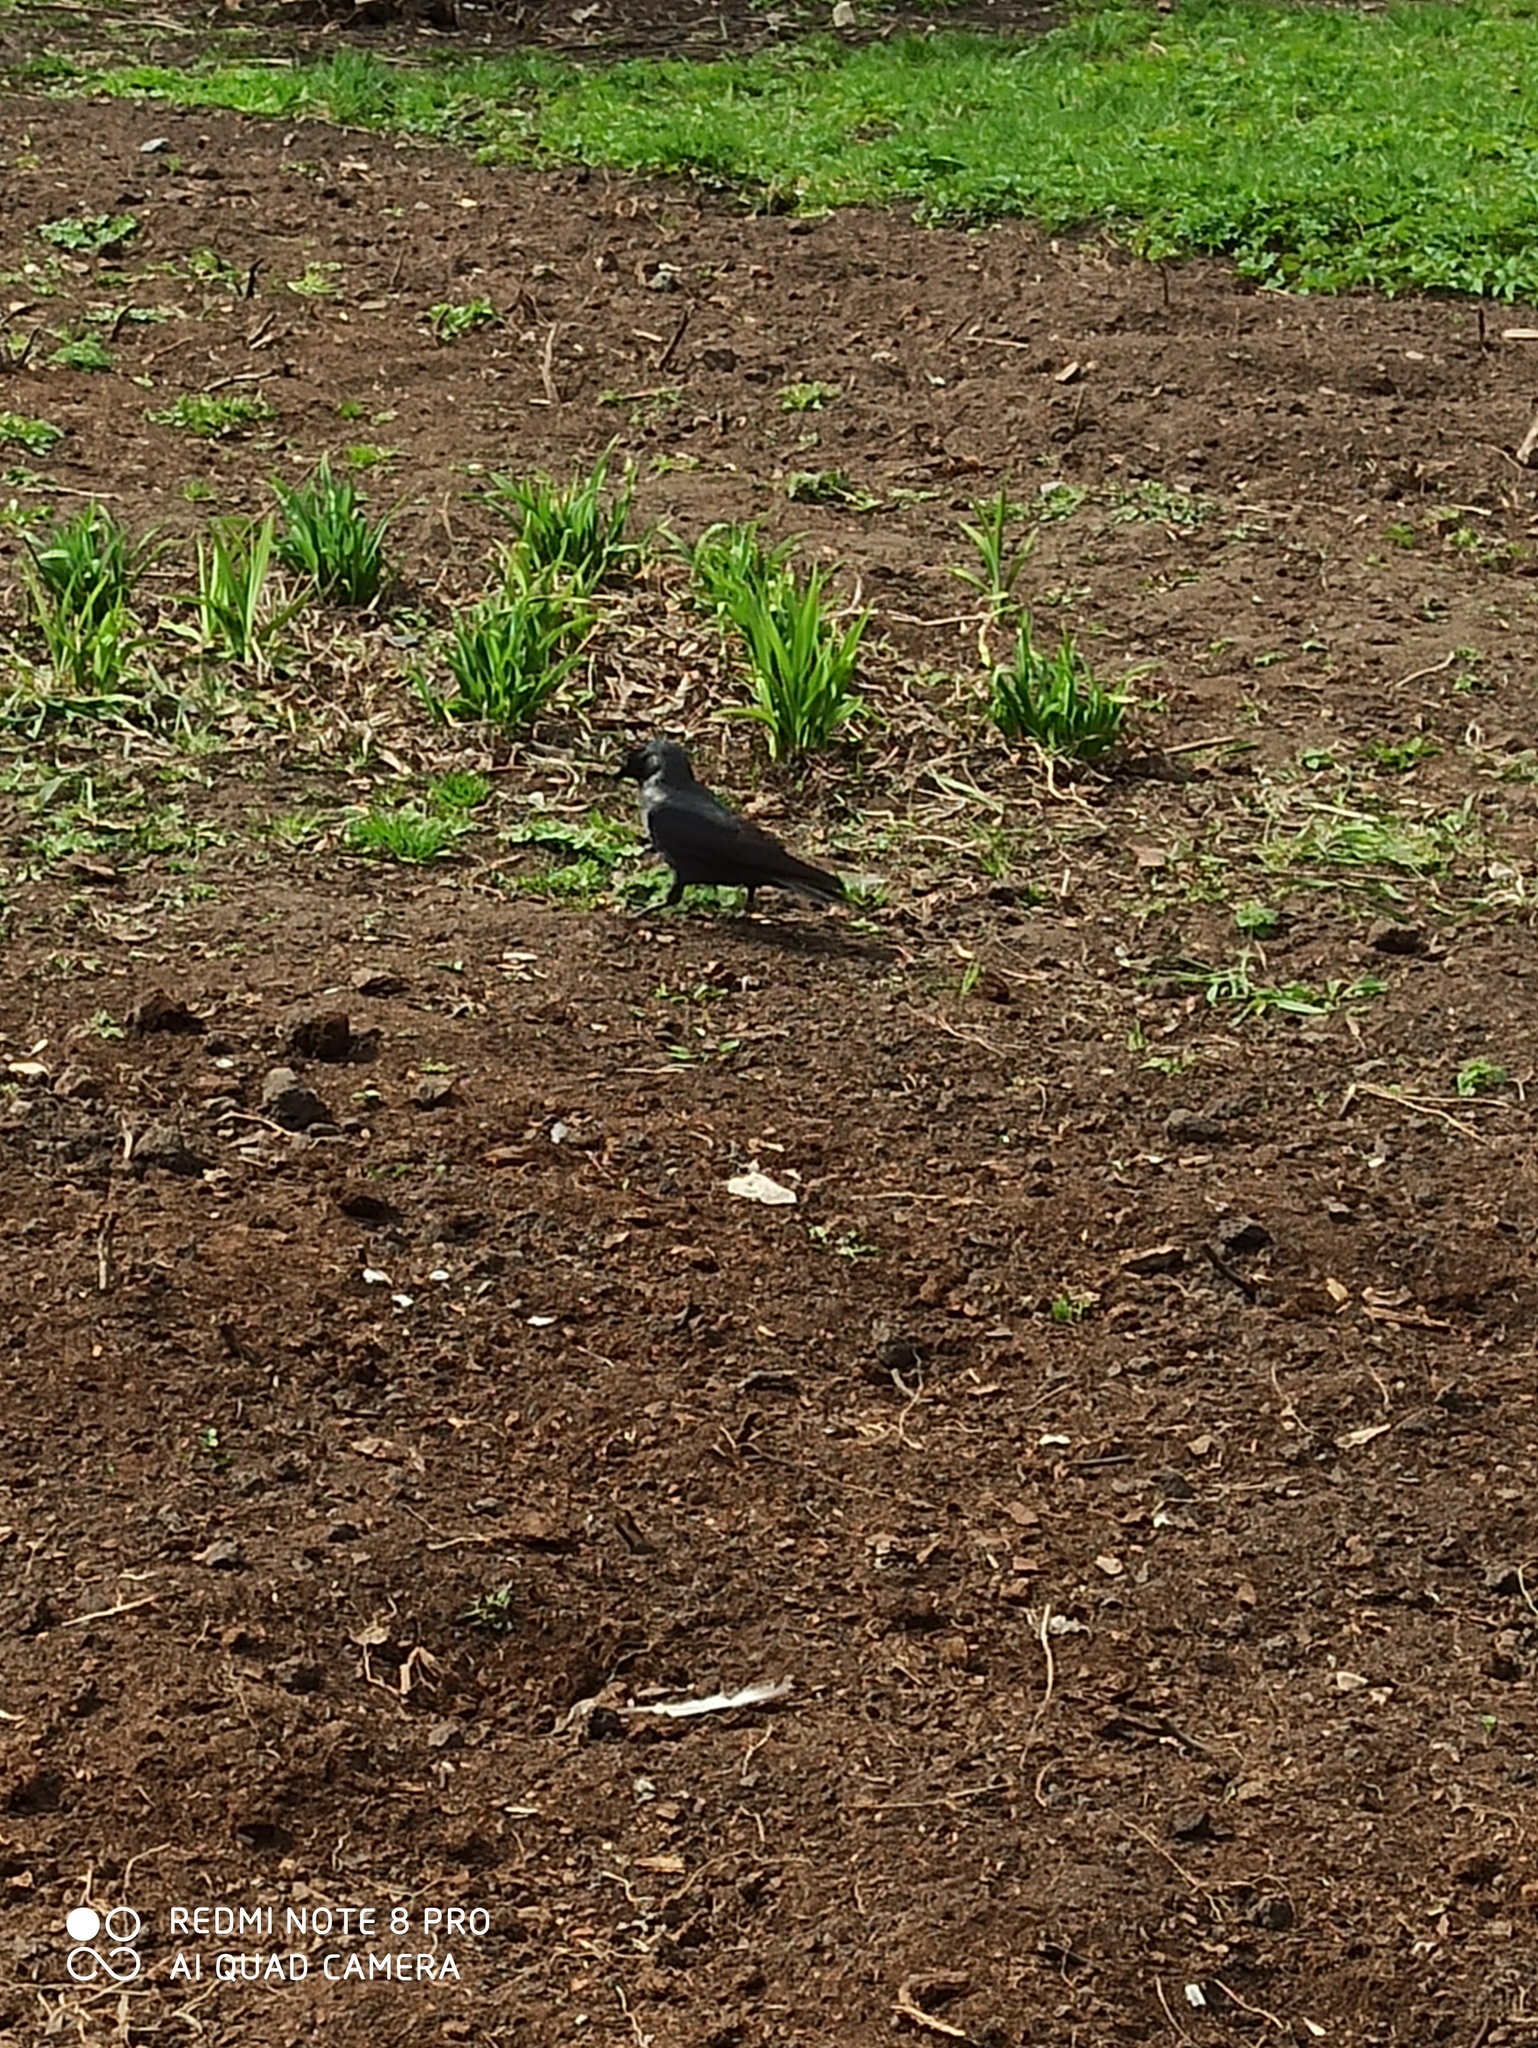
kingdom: Animalia
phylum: Chordata
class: Aves
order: Passeriformes
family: Corvidae
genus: Coloeus
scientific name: Coloeus monedula
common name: Western jackdaw
